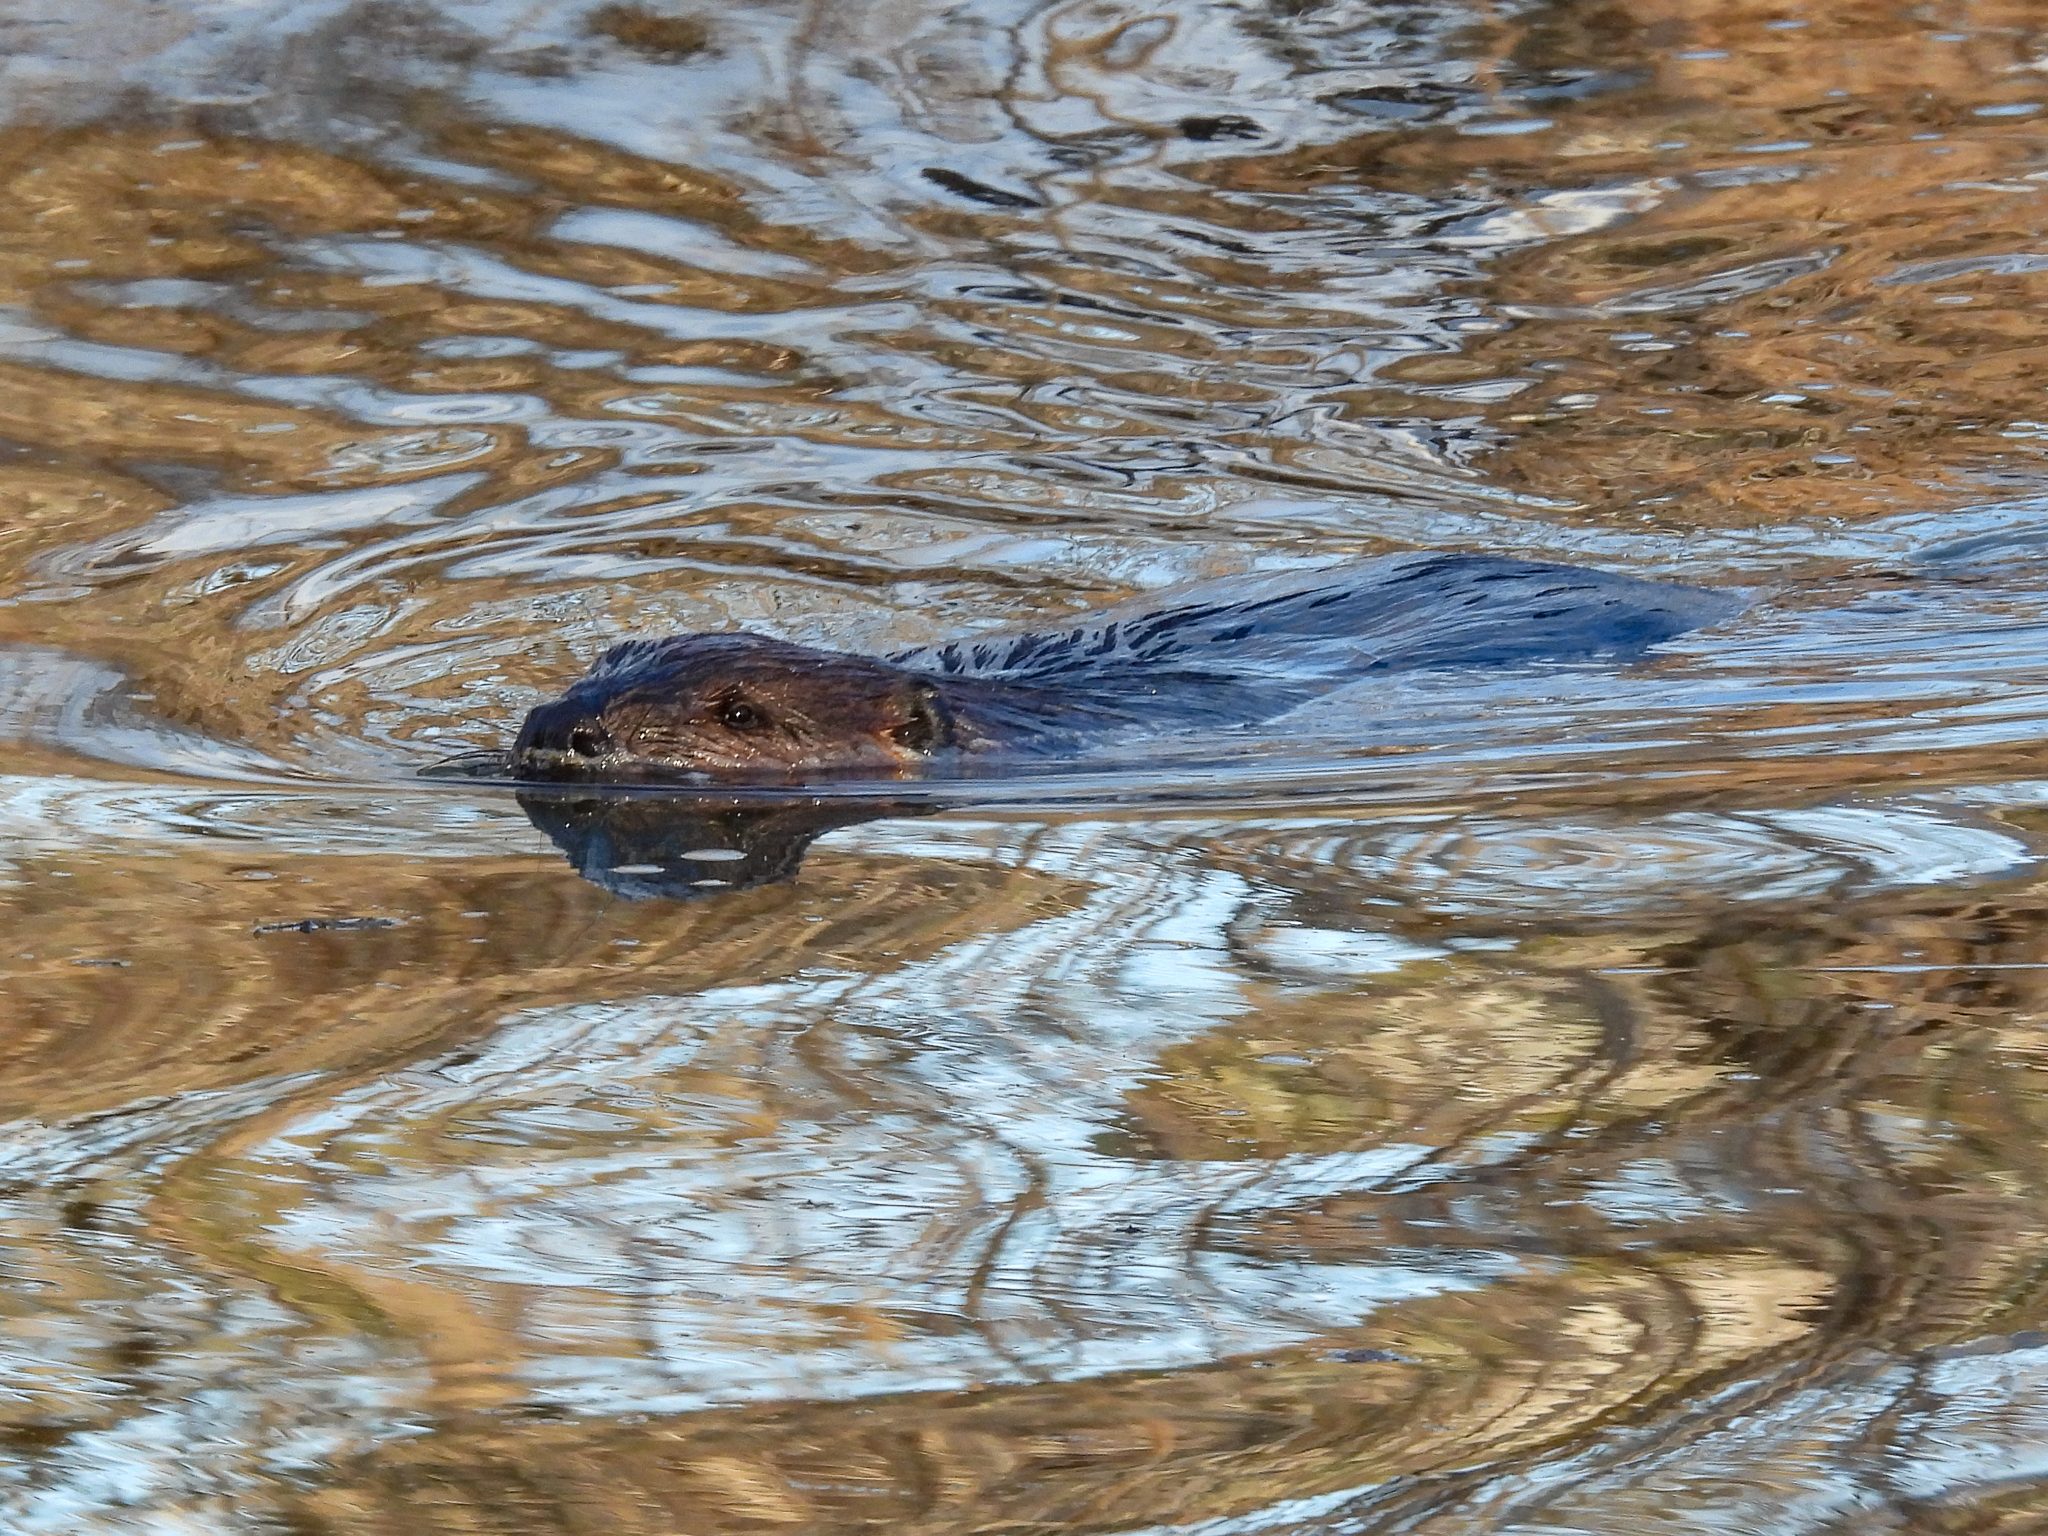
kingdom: Animalia
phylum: Chordata
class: Mammalia
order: Rodentia
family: Castoridae
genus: Castor
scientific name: Castor canadensis
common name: American beaver
